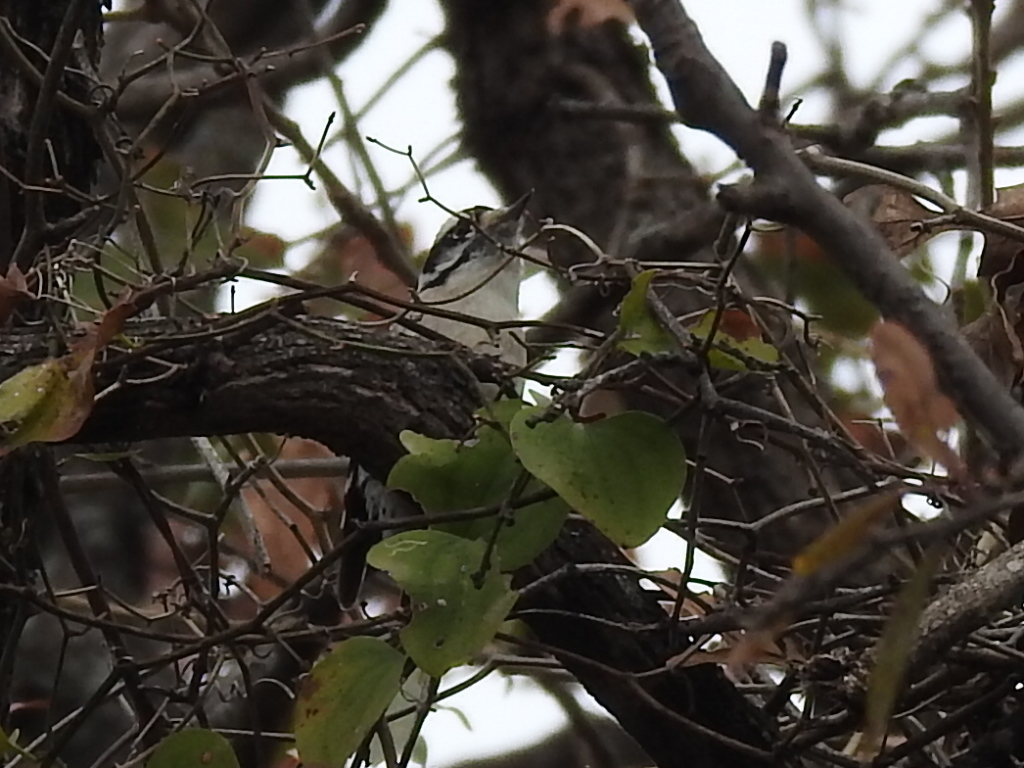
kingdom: Animalia
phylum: Chordata
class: Aves
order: Piciformes
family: Picidae
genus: Dryobates
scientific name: Dryobates pubescens
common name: Downy woodpecker
